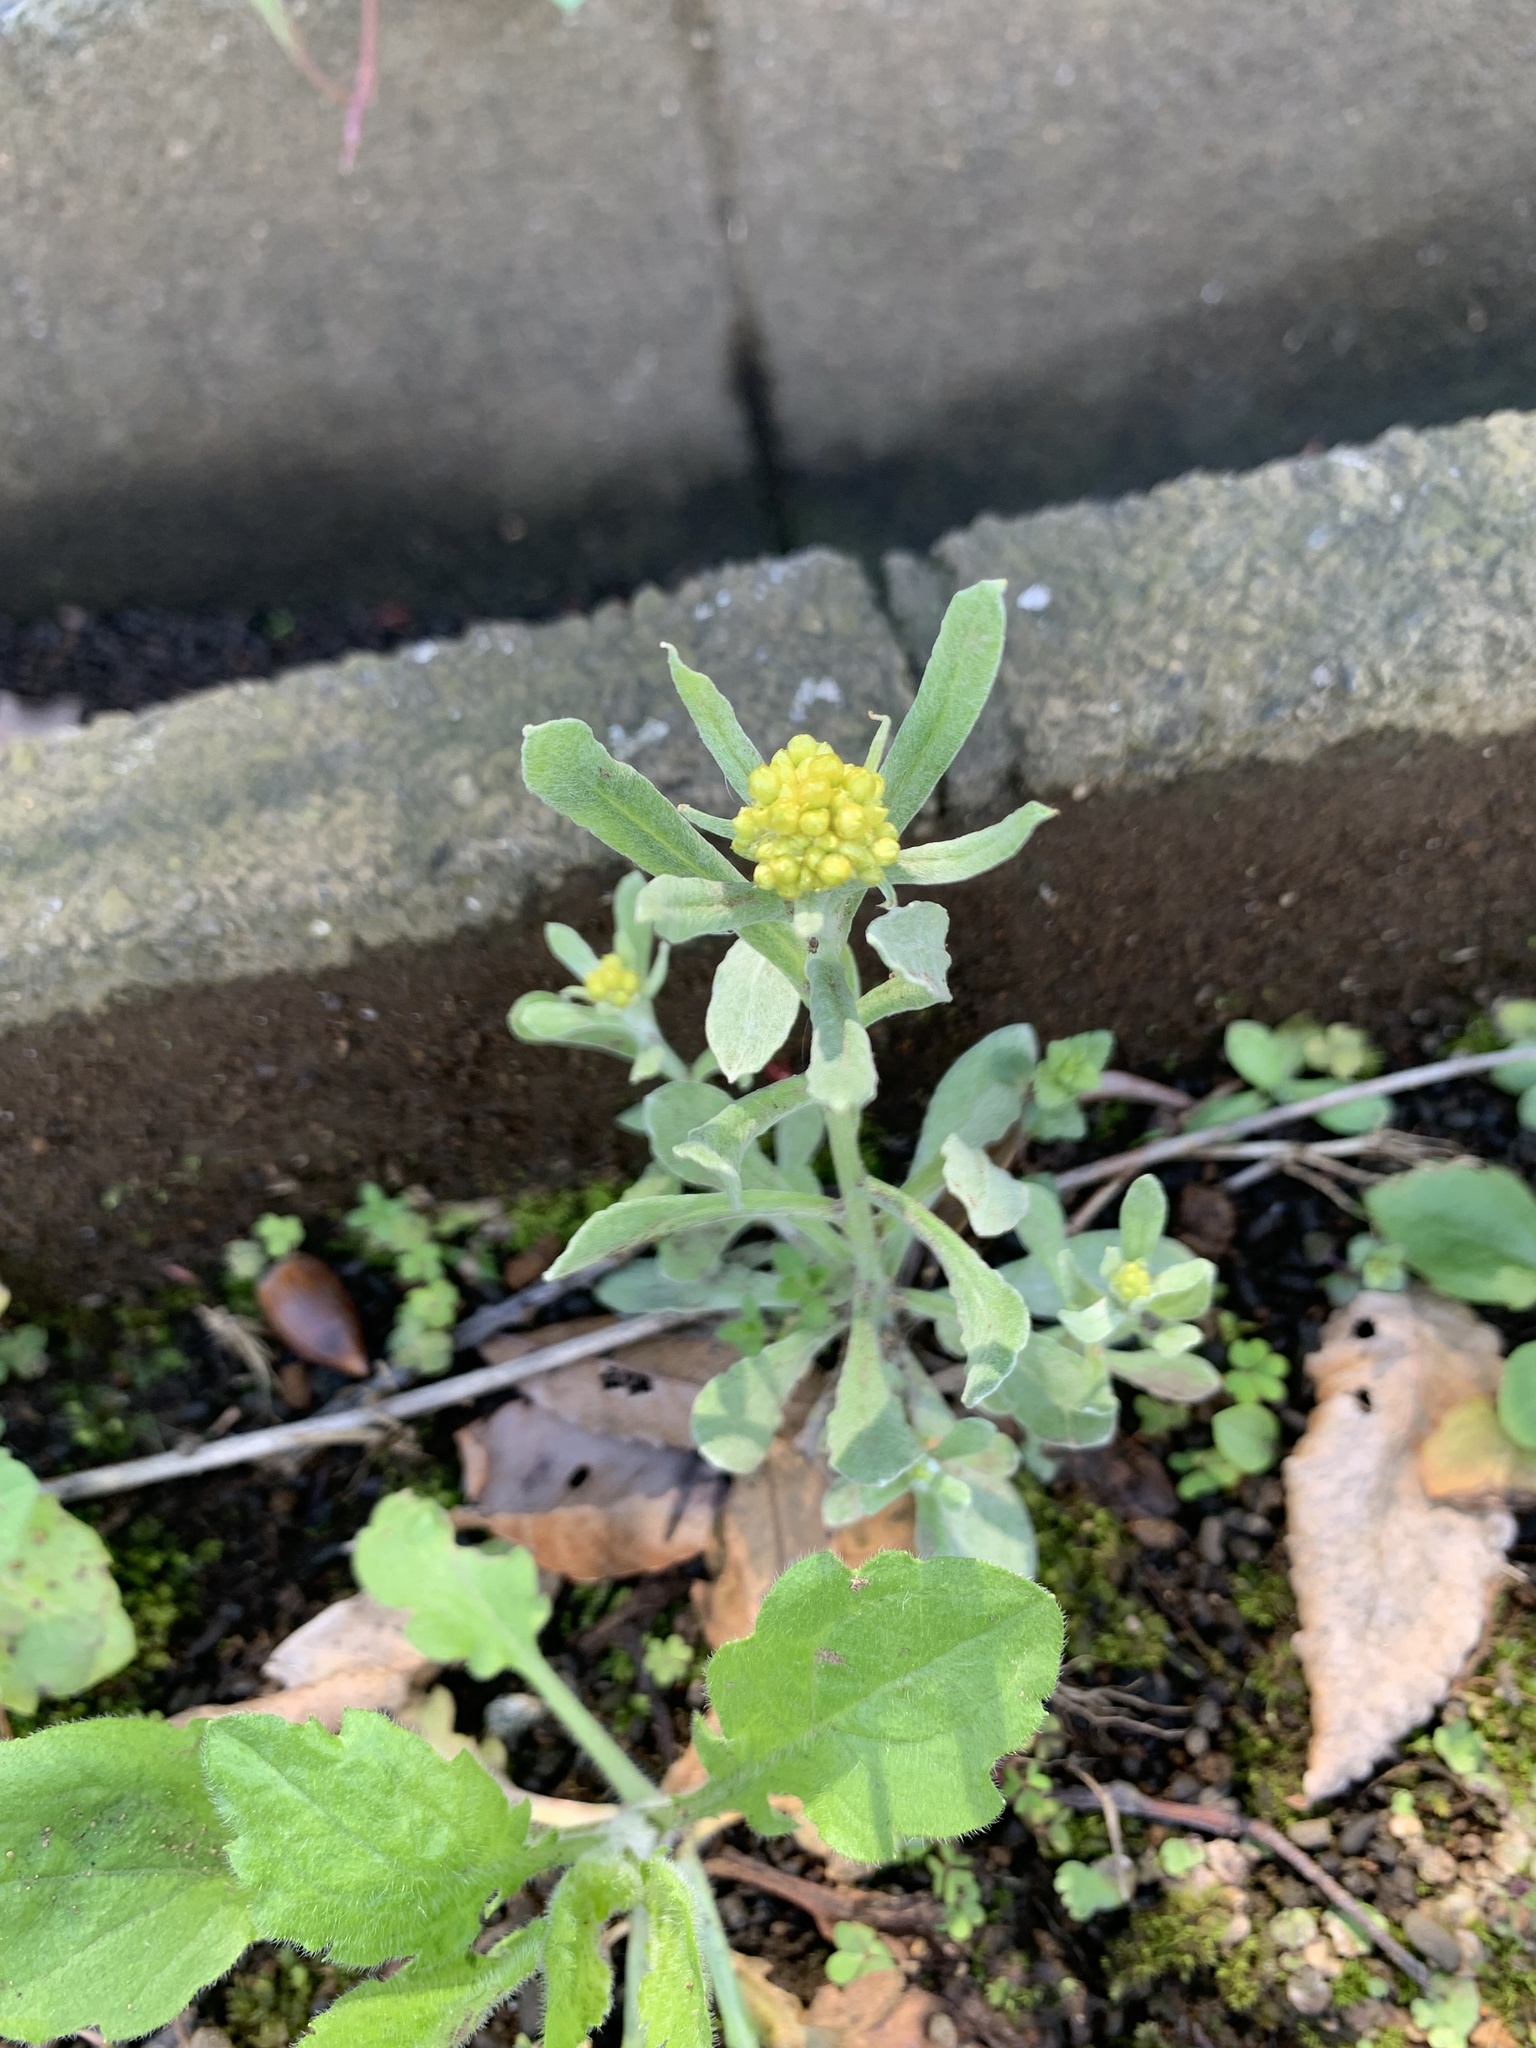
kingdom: Plantae
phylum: Tracheophyta
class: Magnoliopsida
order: Asterales
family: Asteraceae
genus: Pseudognaphalium
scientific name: Pseudognaphalium affine
